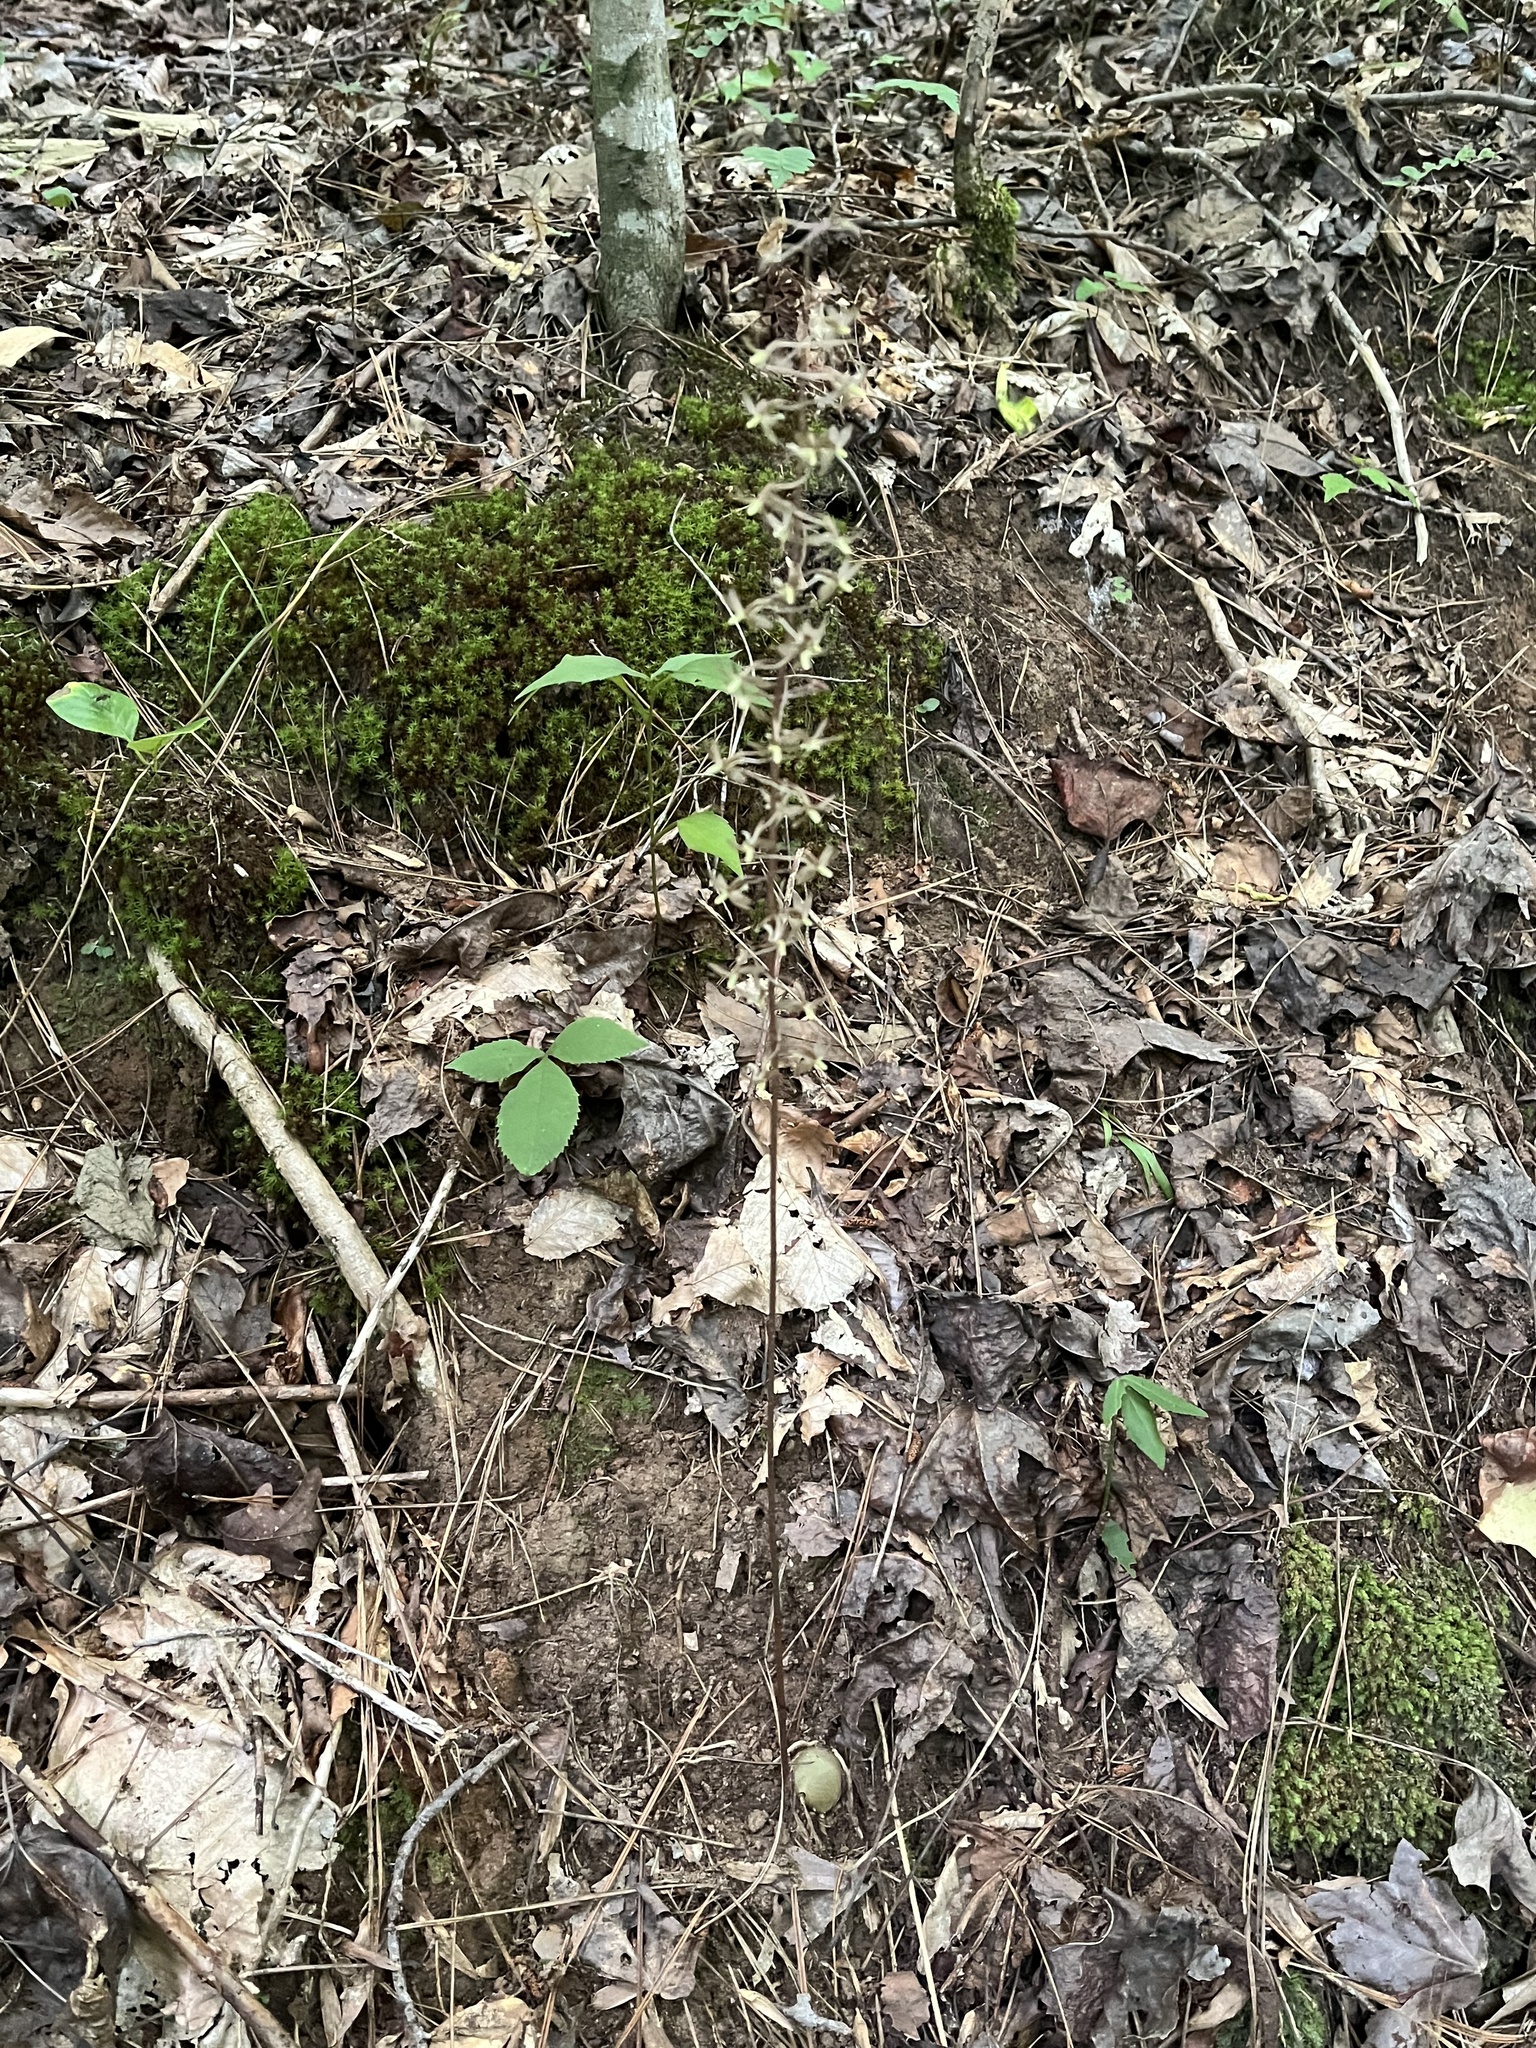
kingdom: Plantae
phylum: Tracheophyta
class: Liliopsida
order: Asparagales
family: Orchidaceae
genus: Tipularia
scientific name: Tipularia discolor
